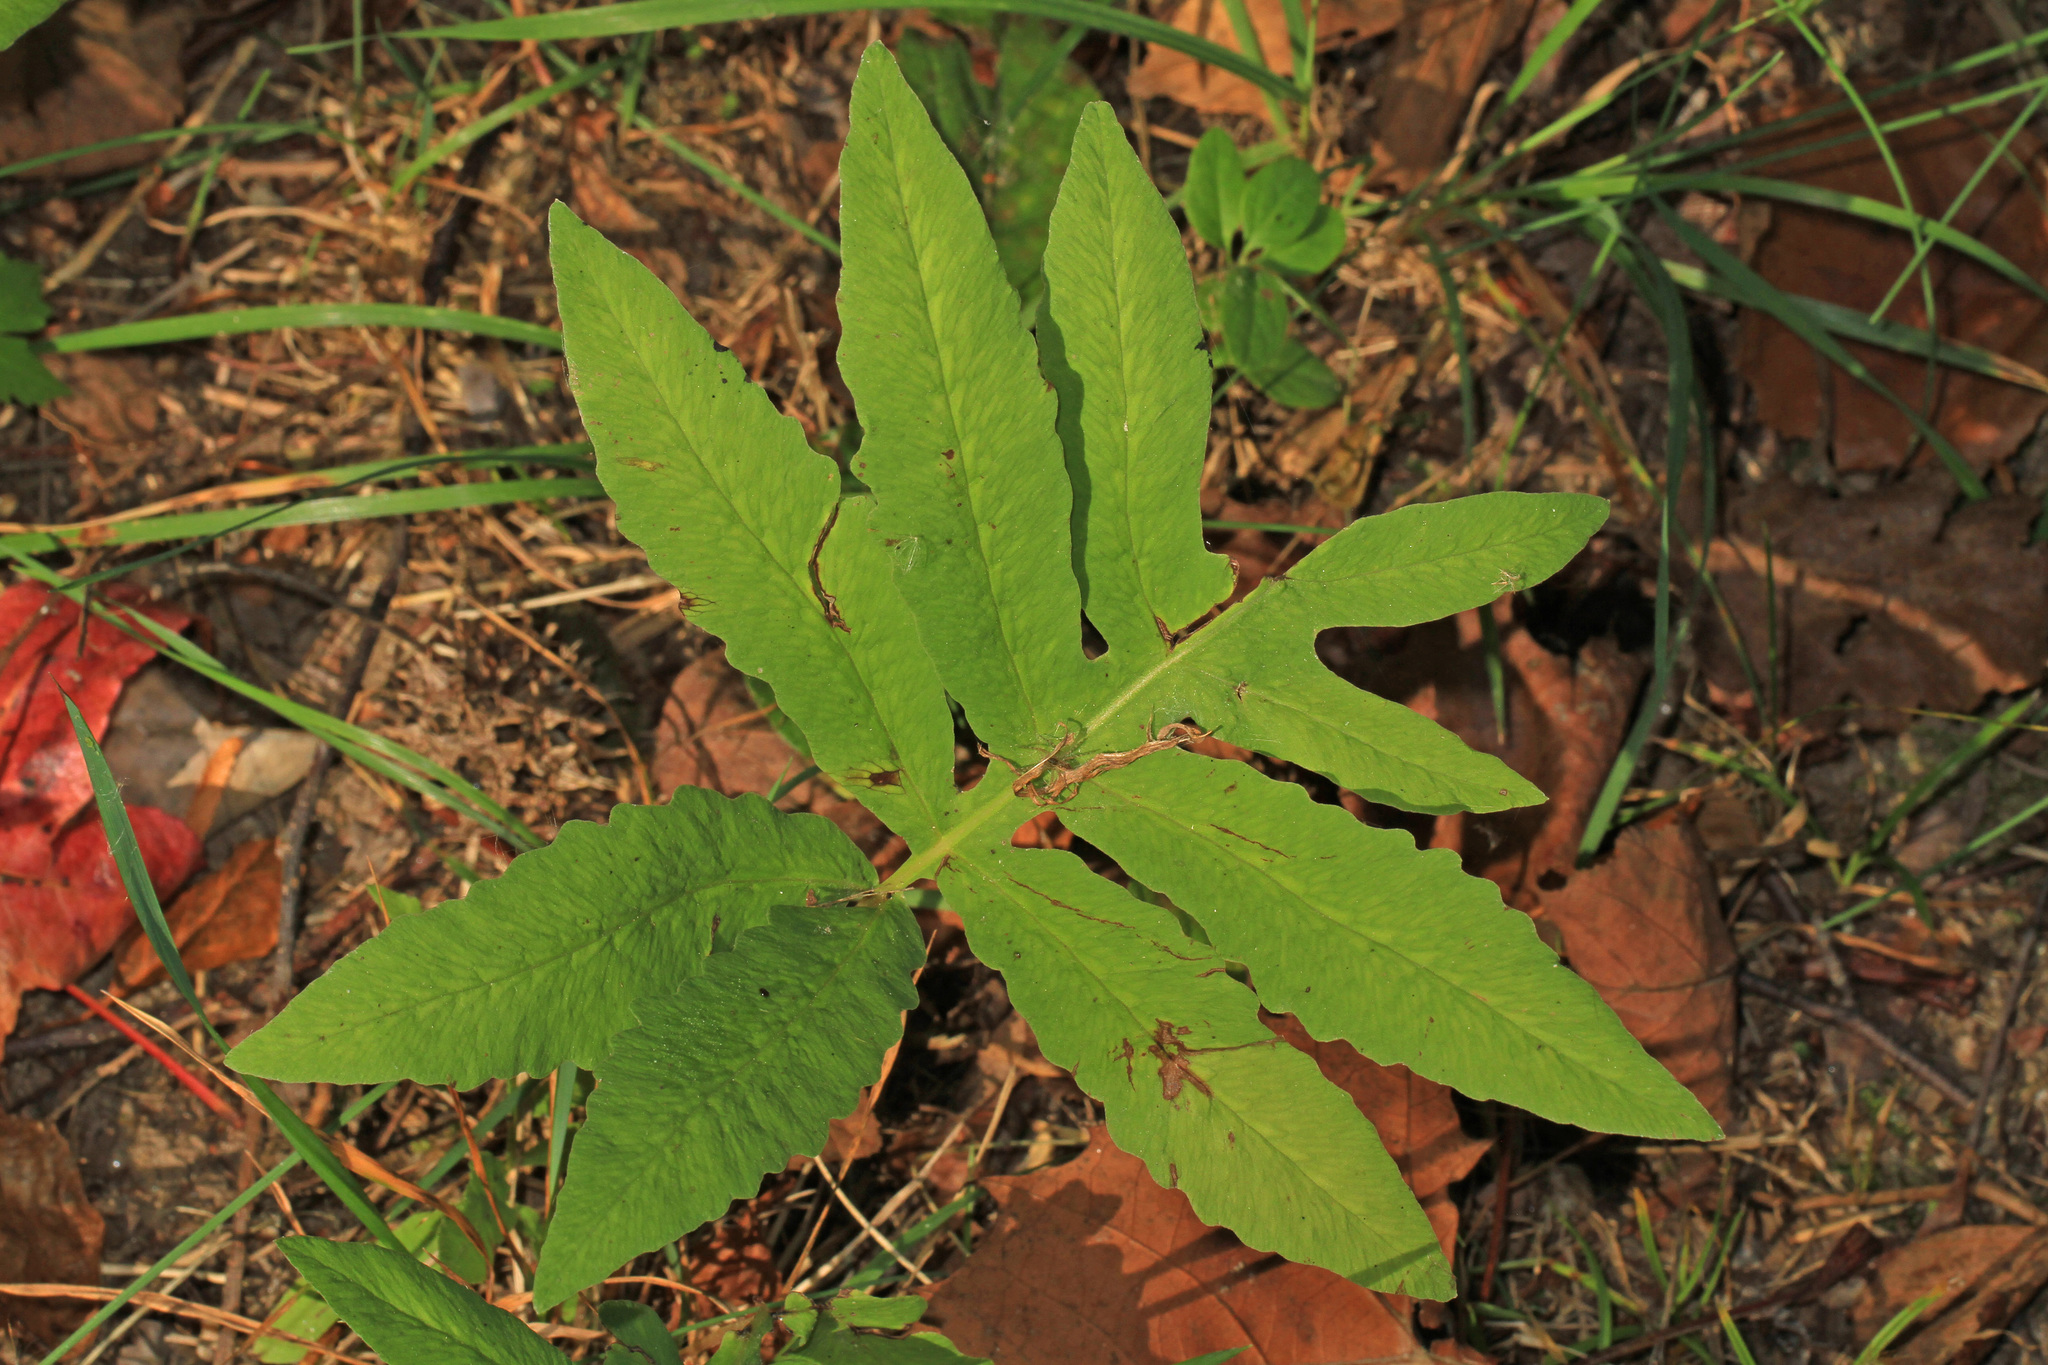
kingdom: Plantae
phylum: Tracheophyta
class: Polypodiopsida
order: Polypodiales
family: Onocleaceae
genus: Onoclea
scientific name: Onoclea sensibilis
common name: Sensitive fern
